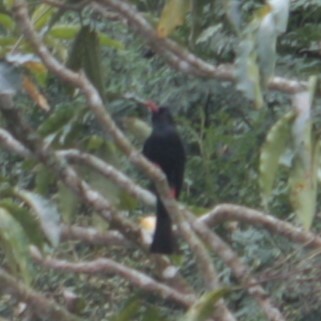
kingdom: Animalia
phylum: Chordata
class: Aves
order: Passeriformes
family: Pycnonotidae
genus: Hypsipetes
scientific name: Hypsipetes leucocephalus
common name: Black bulbul
